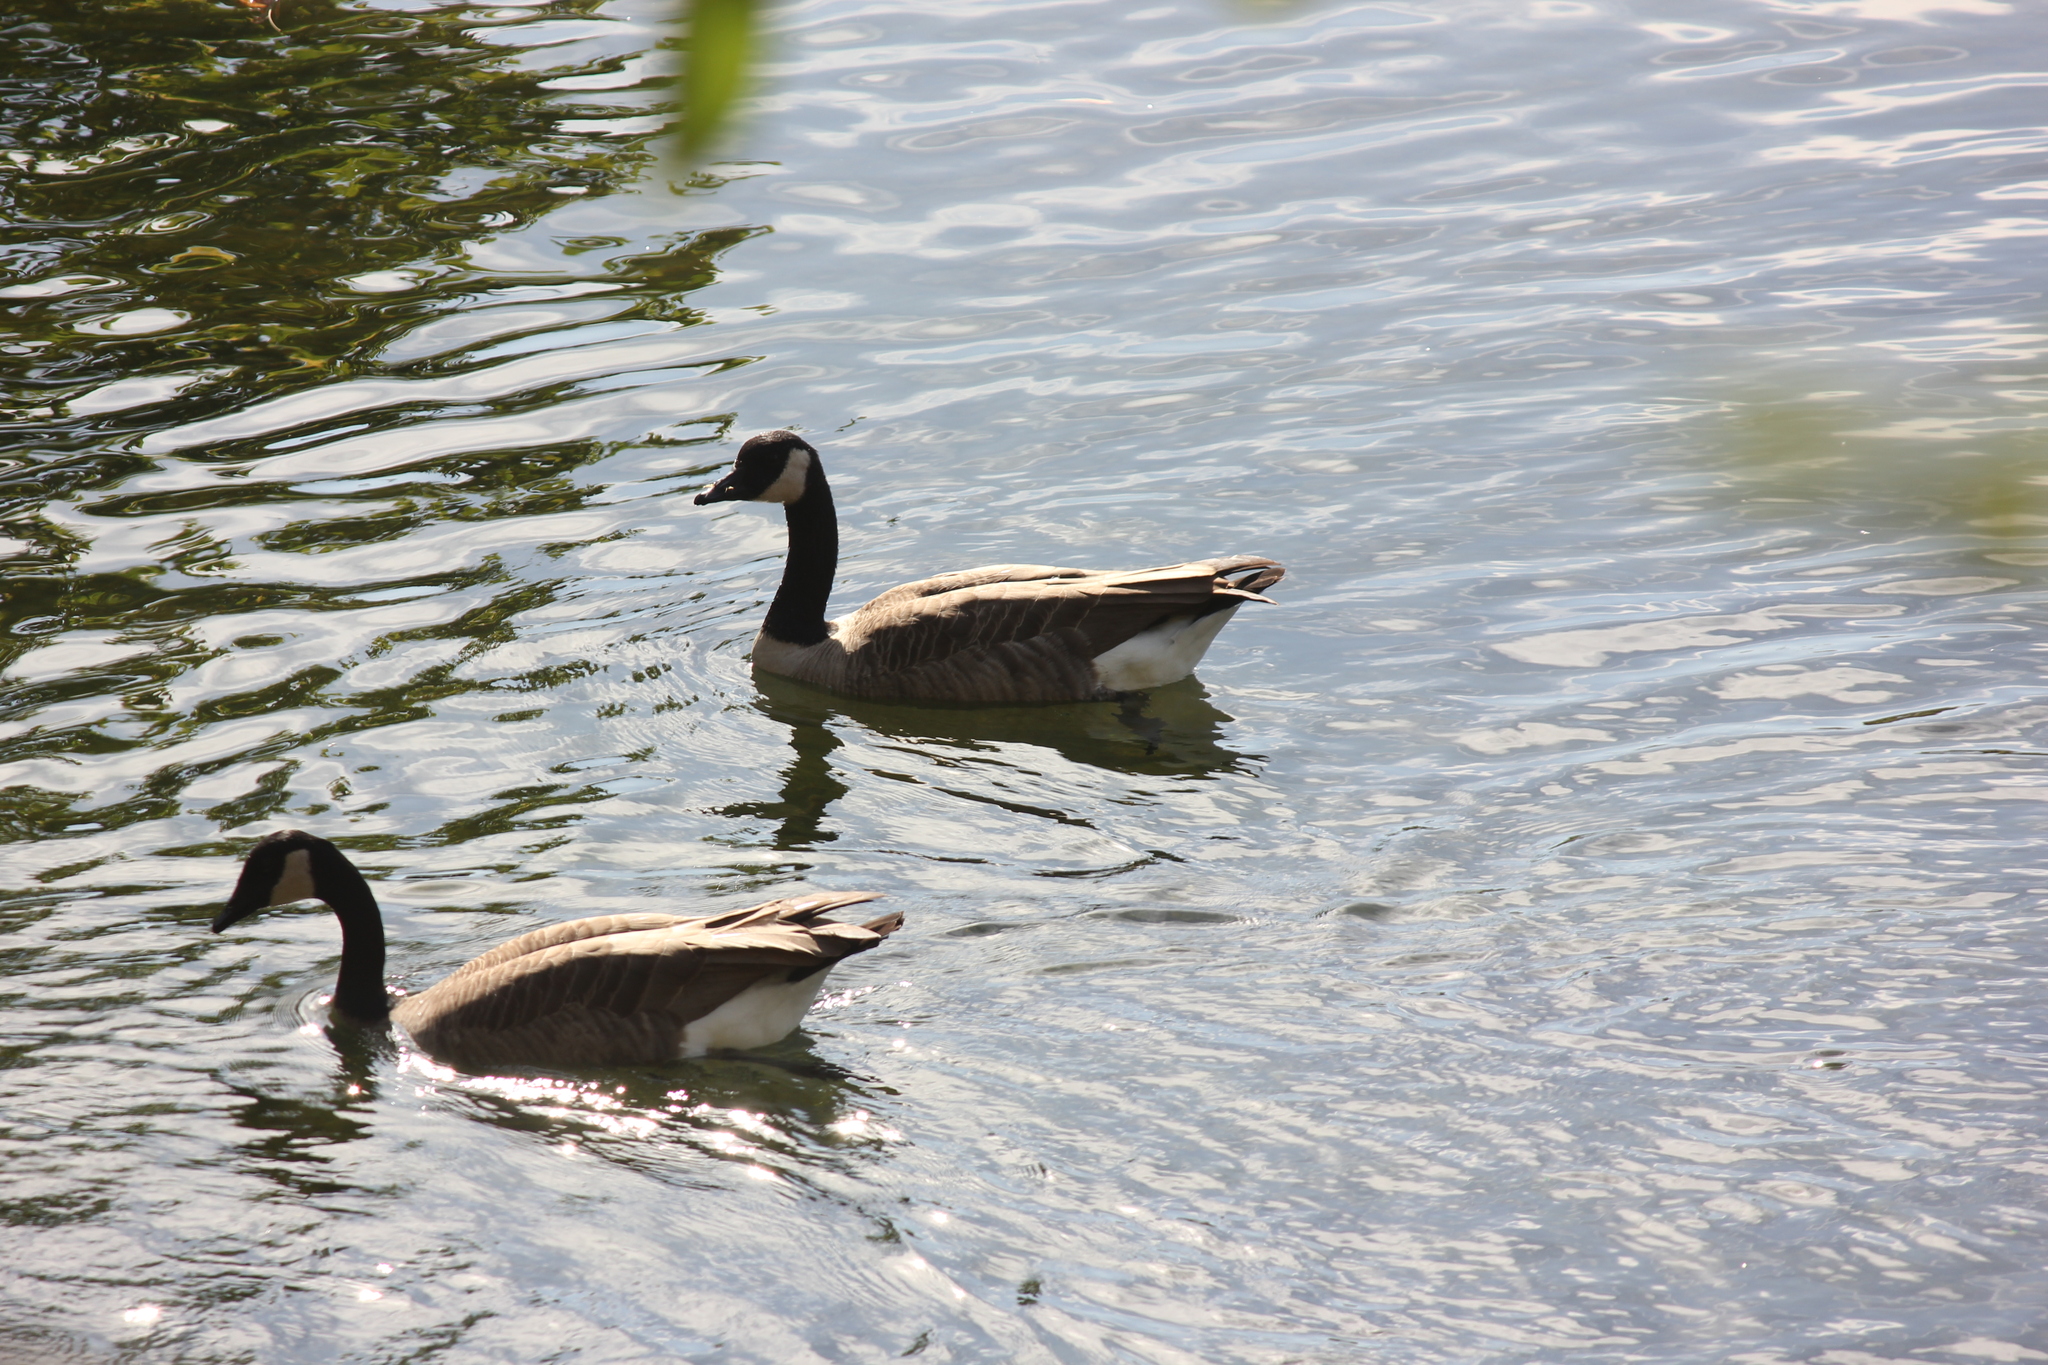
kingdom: Animalia
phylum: Chordata
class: Aves
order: Anseriformes
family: Anatidae
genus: Branta
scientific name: Branta canadensis
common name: Canada goose
